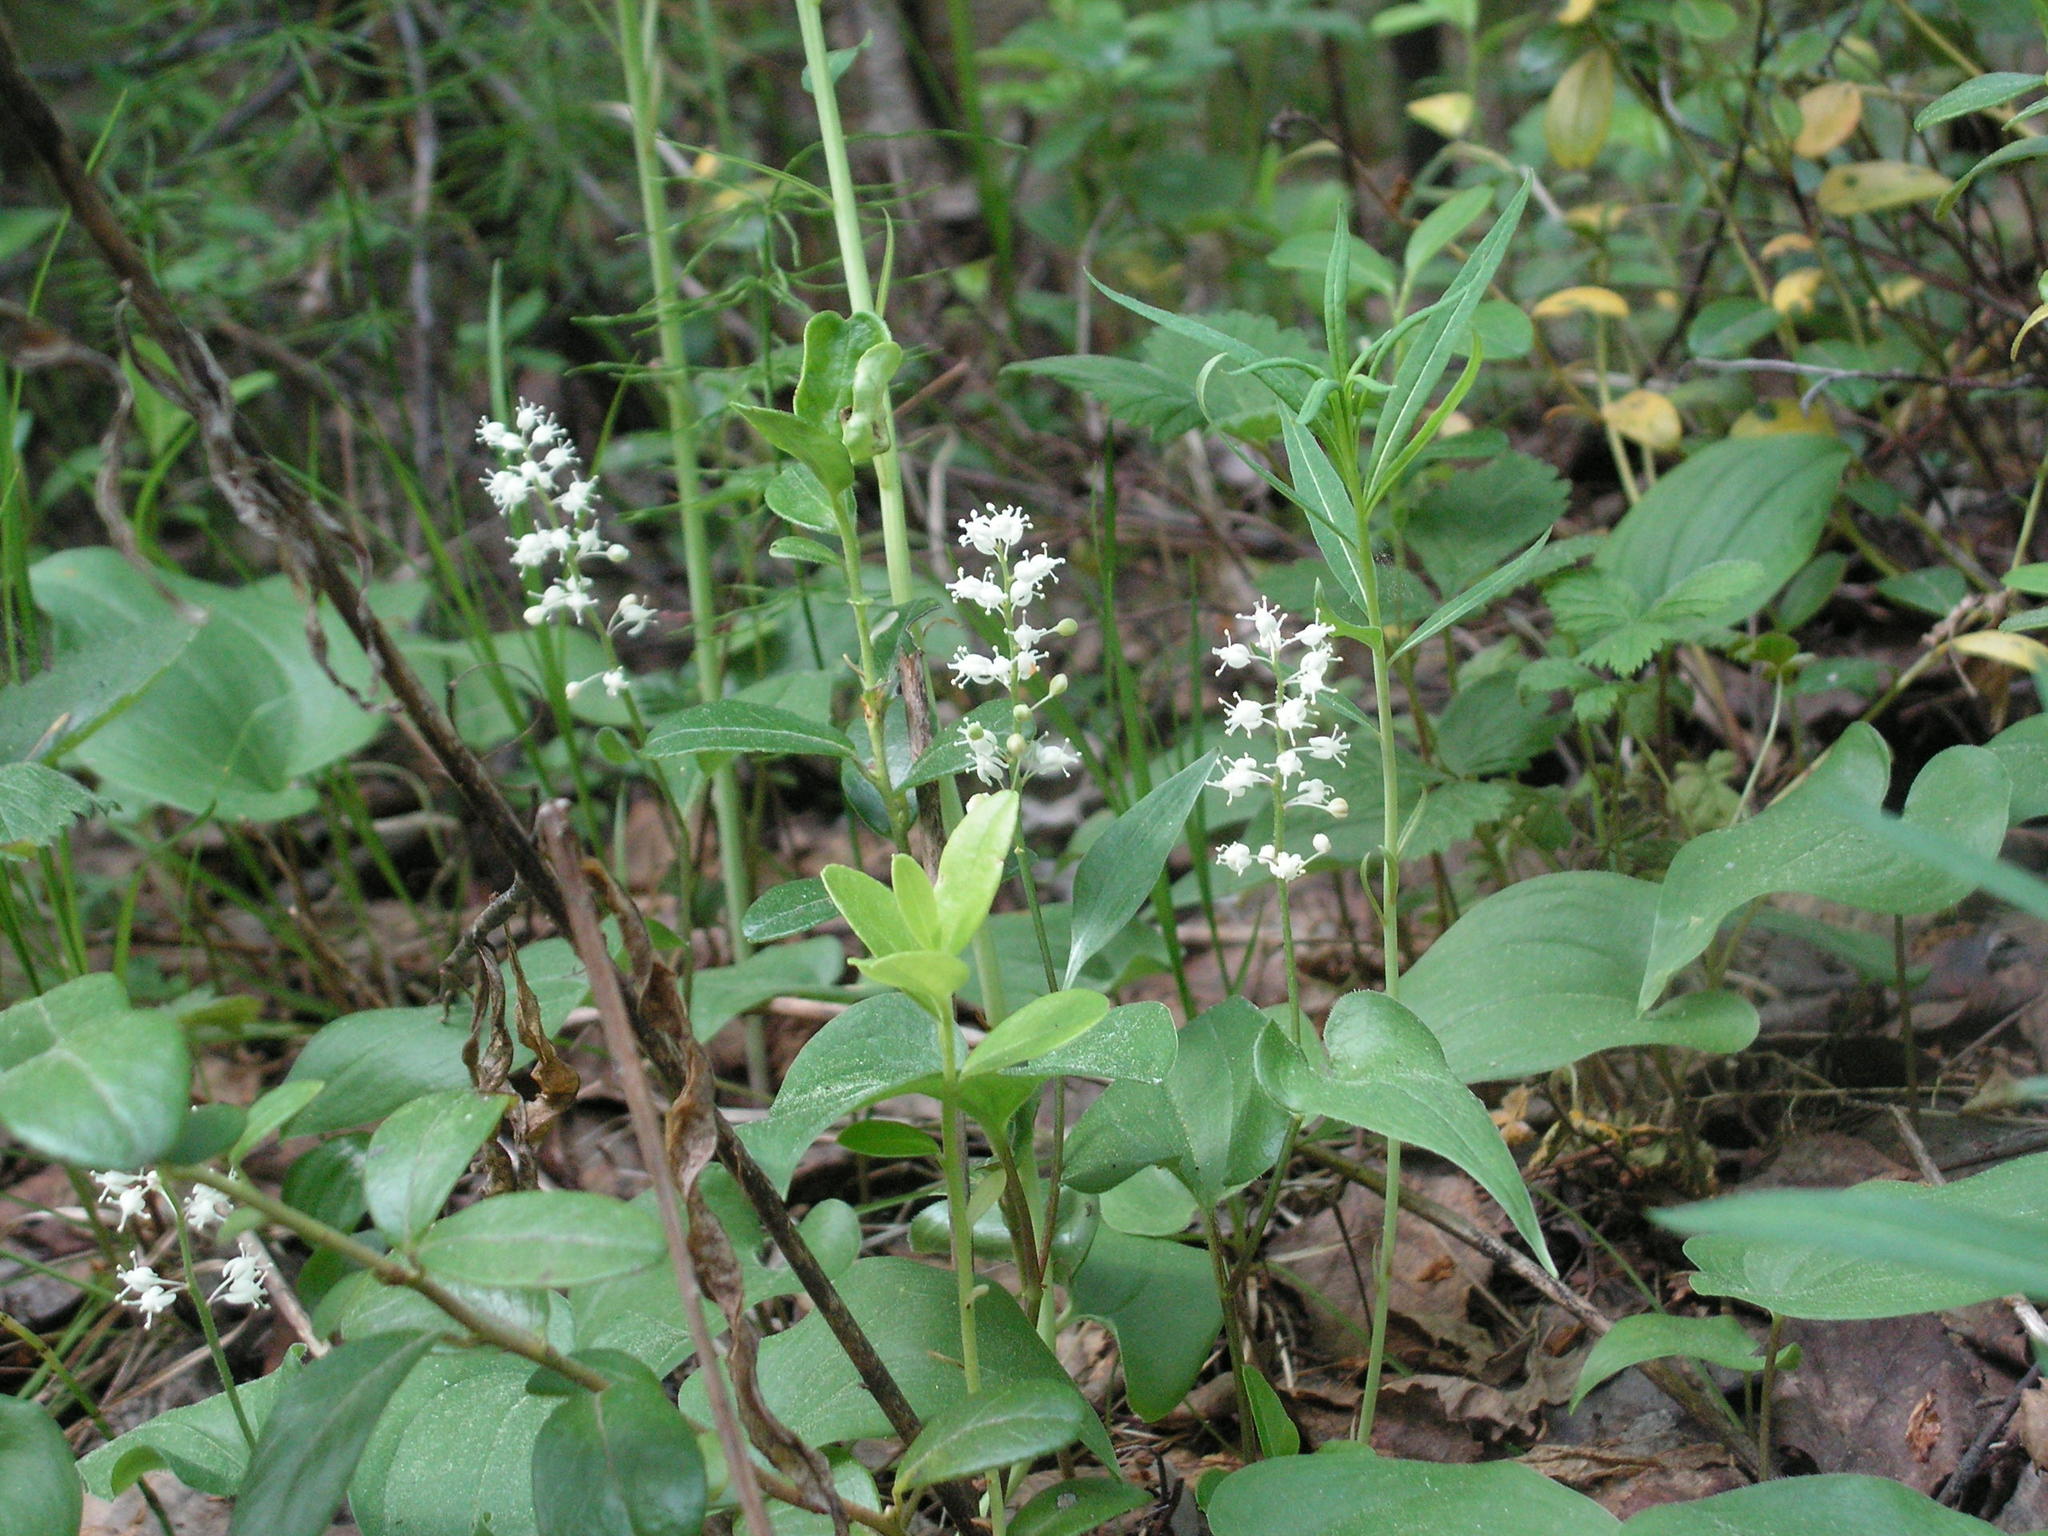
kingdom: Plantae
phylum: Tracheophyta
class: Liliopsida
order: Asparagales
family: Asparagaceae
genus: Maianthemum
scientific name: Maianthemum bifolium
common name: May lily
